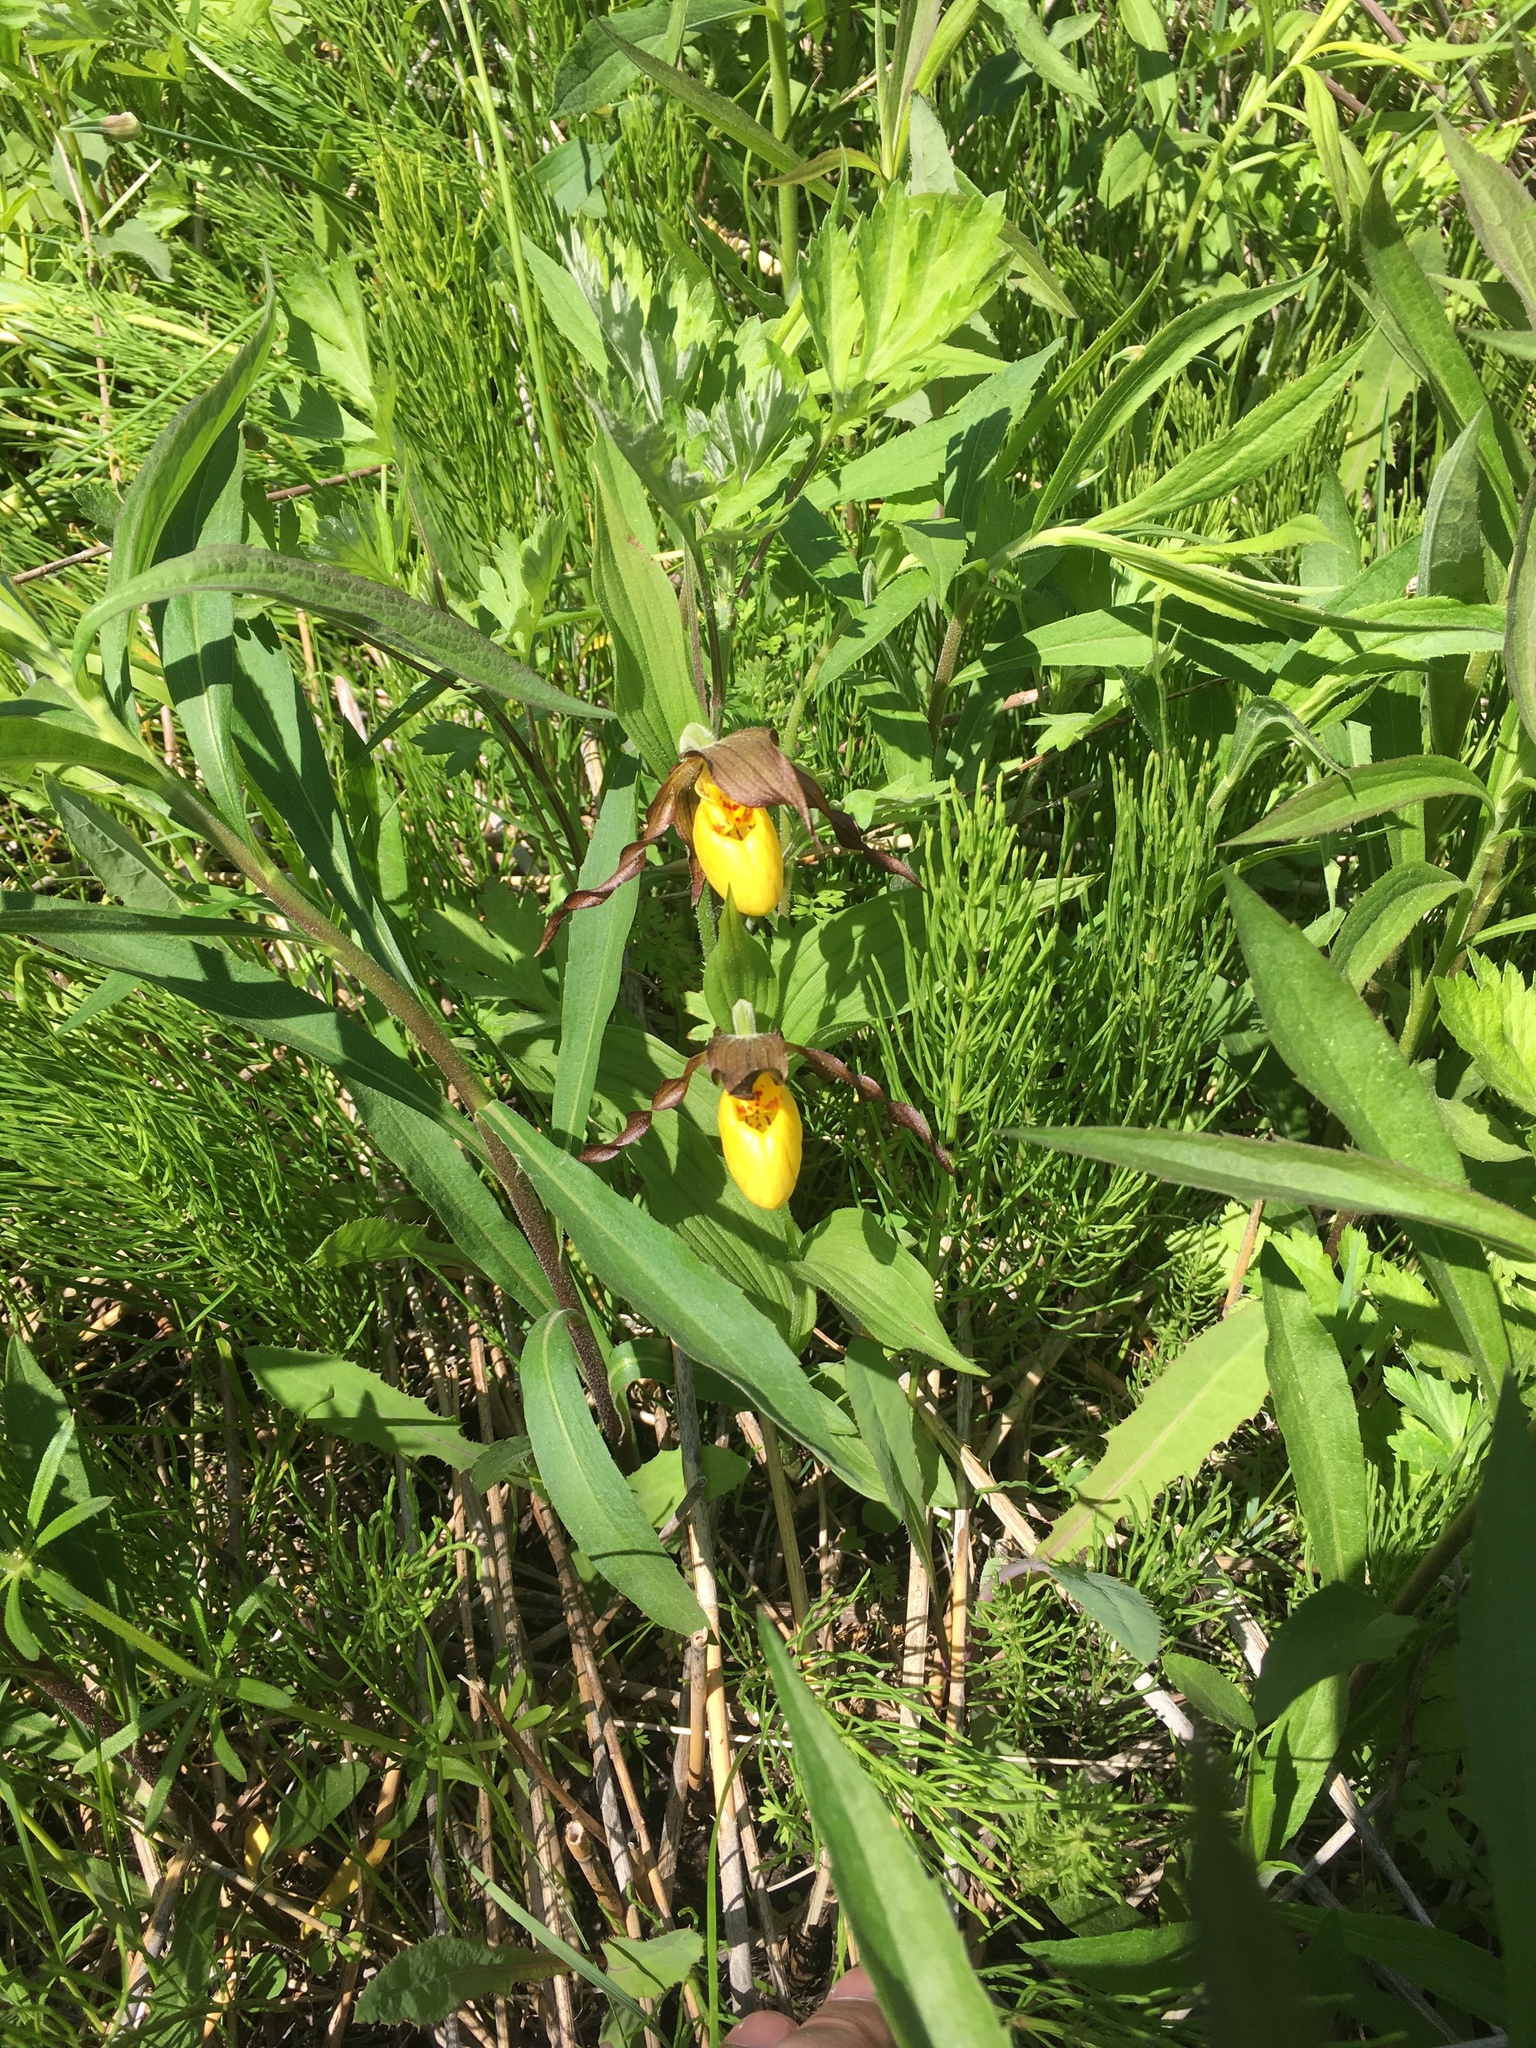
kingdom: Plantae
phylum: Tracheophyta
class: Liliopsida
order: Asparagales
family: Orchidaceae
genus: Cypripedium
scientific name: Cypripedium parviflorum
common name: American yellow lady's-slipper
